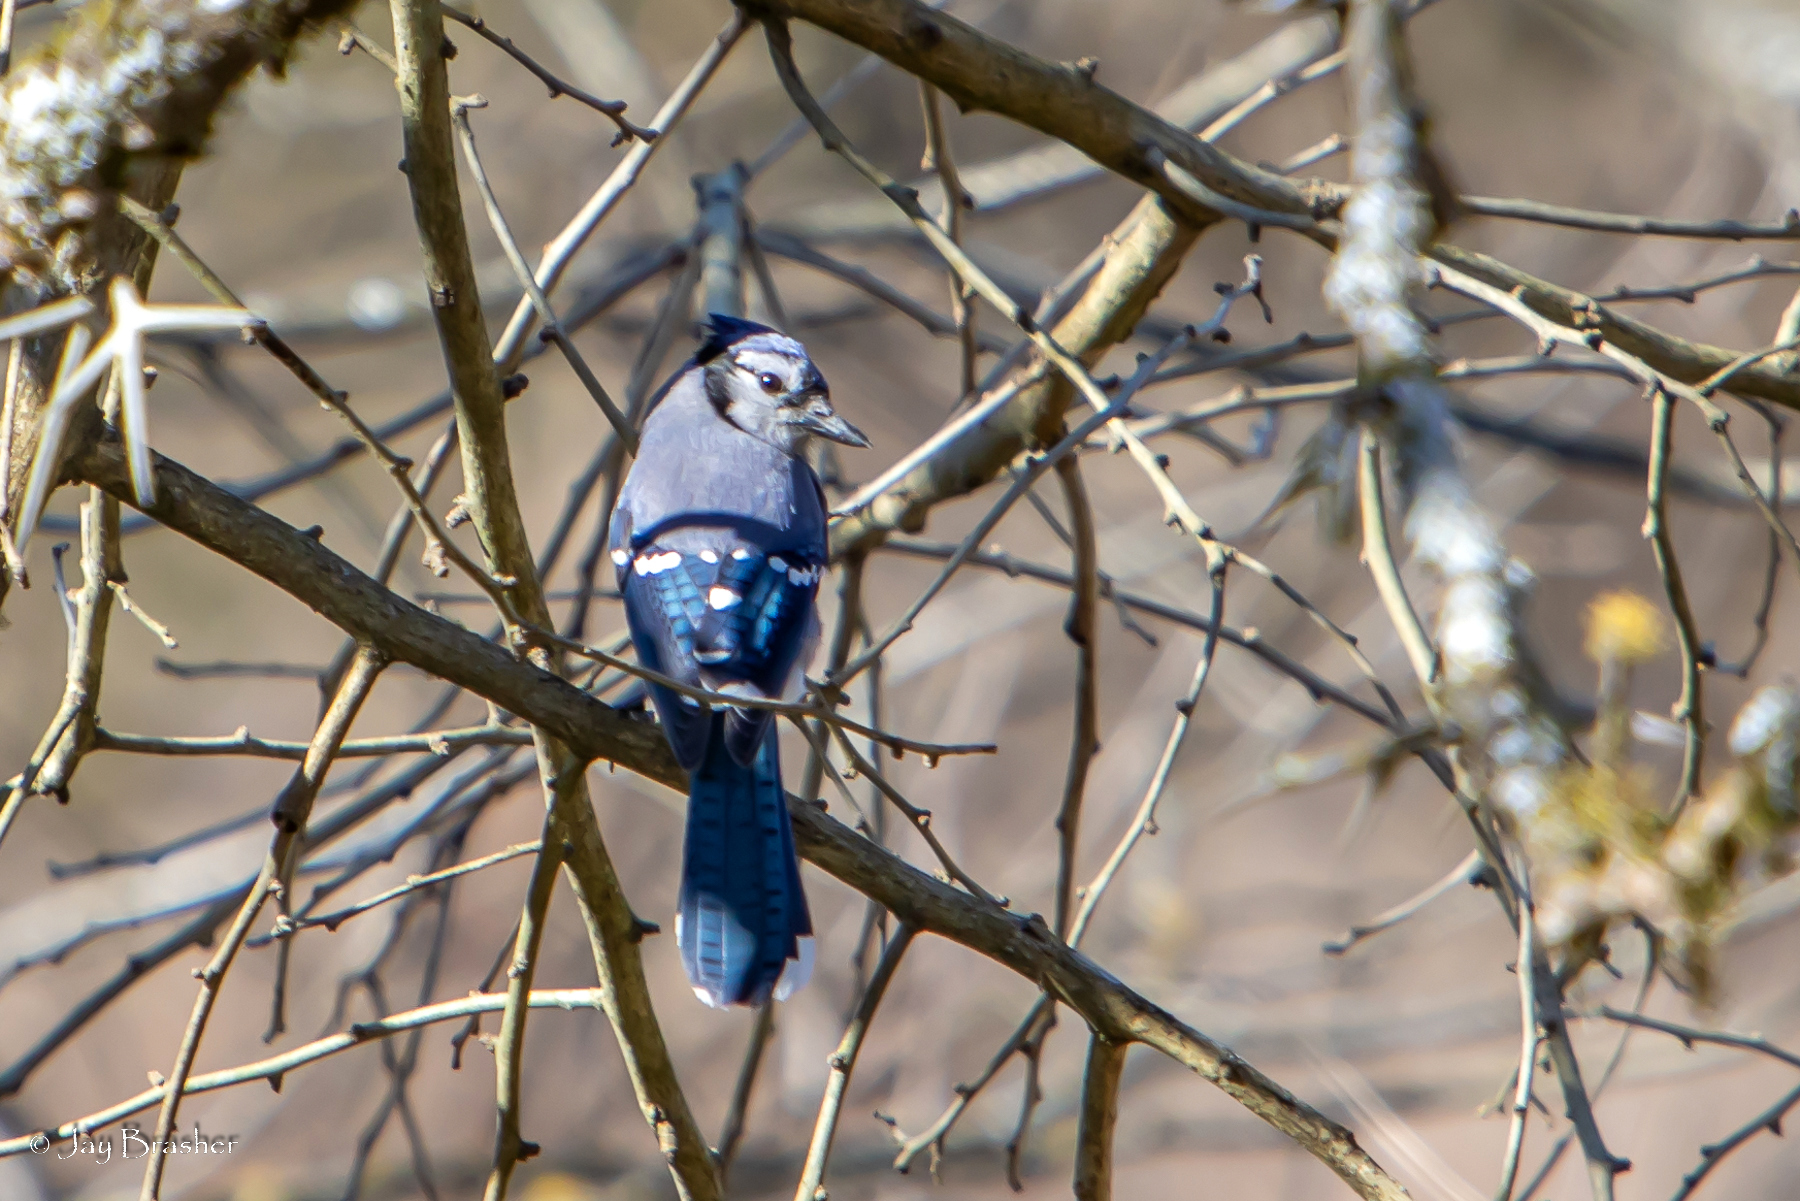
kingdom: Animalia
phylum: Chordata
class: Aves
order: Passeriformes
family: Corvidae
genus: Cyanocitta
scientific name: Cyanocitta cristata
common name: Blue jay
